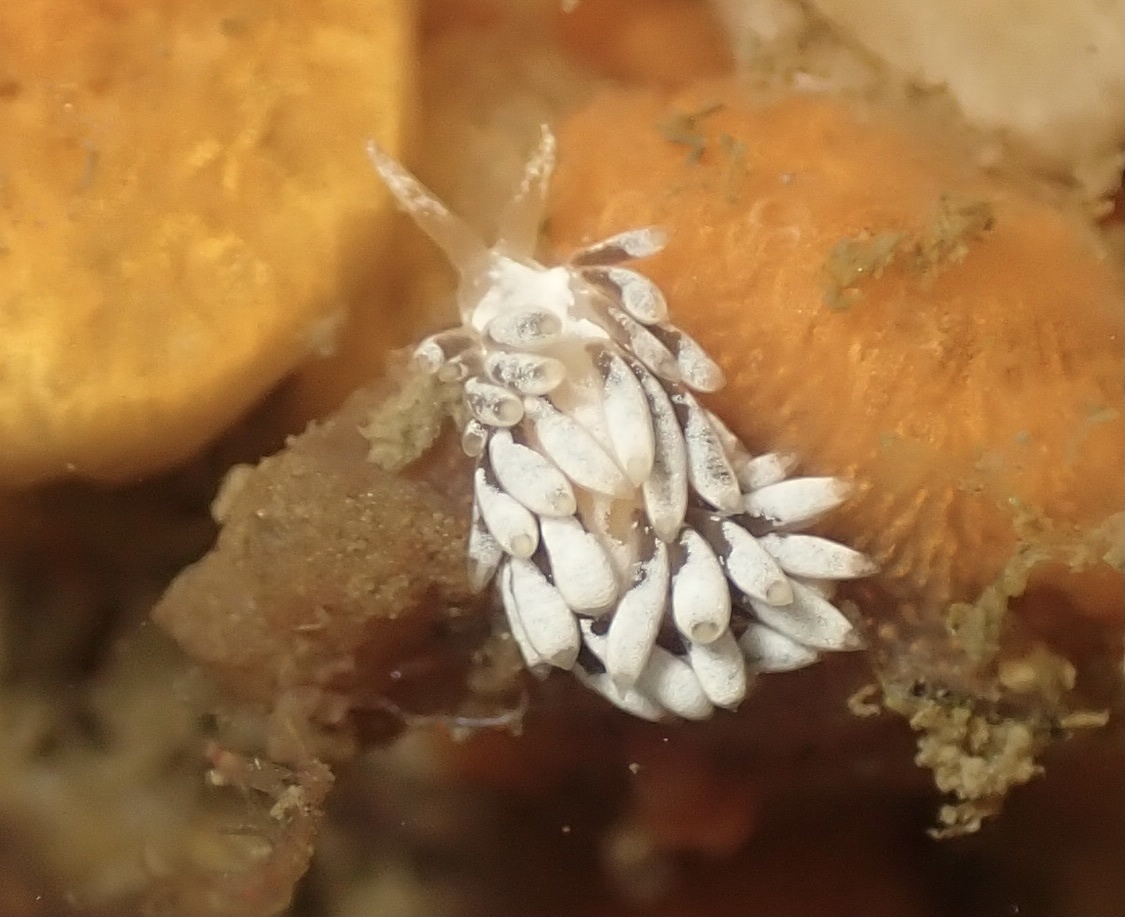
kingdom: Animalia
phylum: Mollusca
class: Gastropoda
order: Nudibranchia
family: Trinchesiidae
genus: Trinchesia
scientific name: Trinchesia albocrusta
